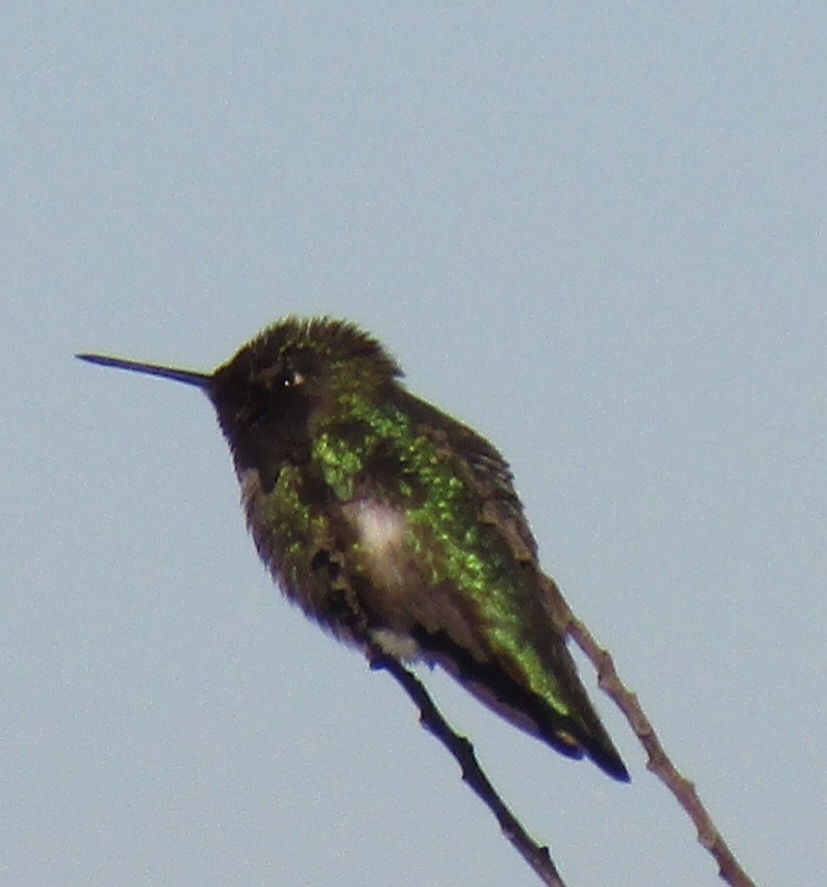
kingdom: Animalia
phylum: Chordata
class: Aves
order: Apodiformes
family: Trochilidae
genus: Calypte
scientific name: Calypte anna
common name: Anna's hummingbird
